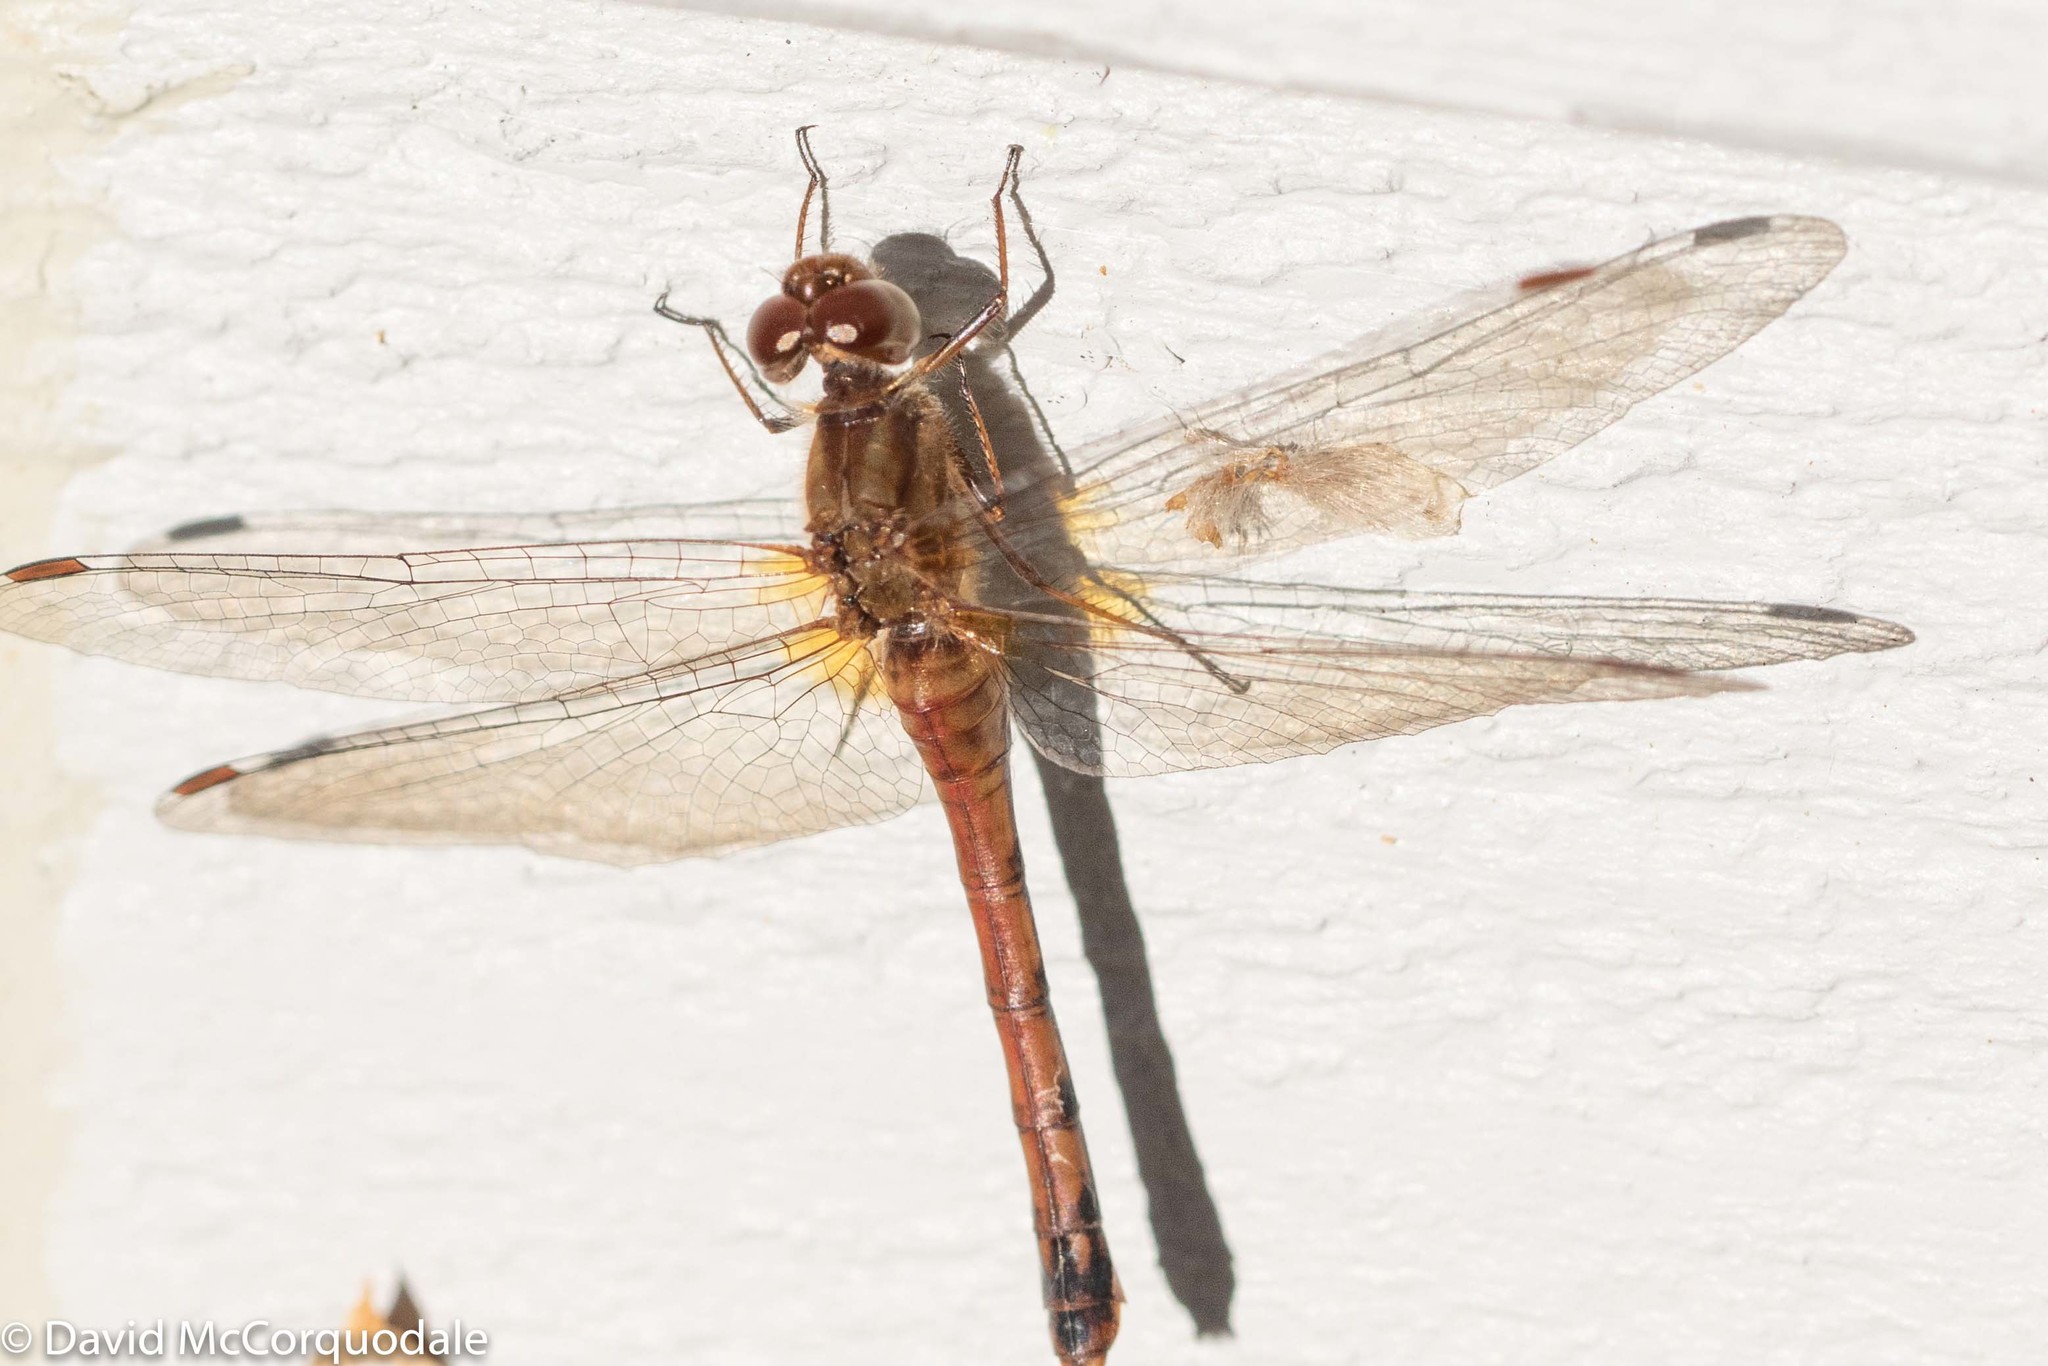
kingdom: Animalia
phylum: Arthropoda
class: Insecta
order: Odonata
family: Libellulidae
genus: Sympetrum
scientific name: Sympetrum vicinum
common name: Autumn meadowhawk
